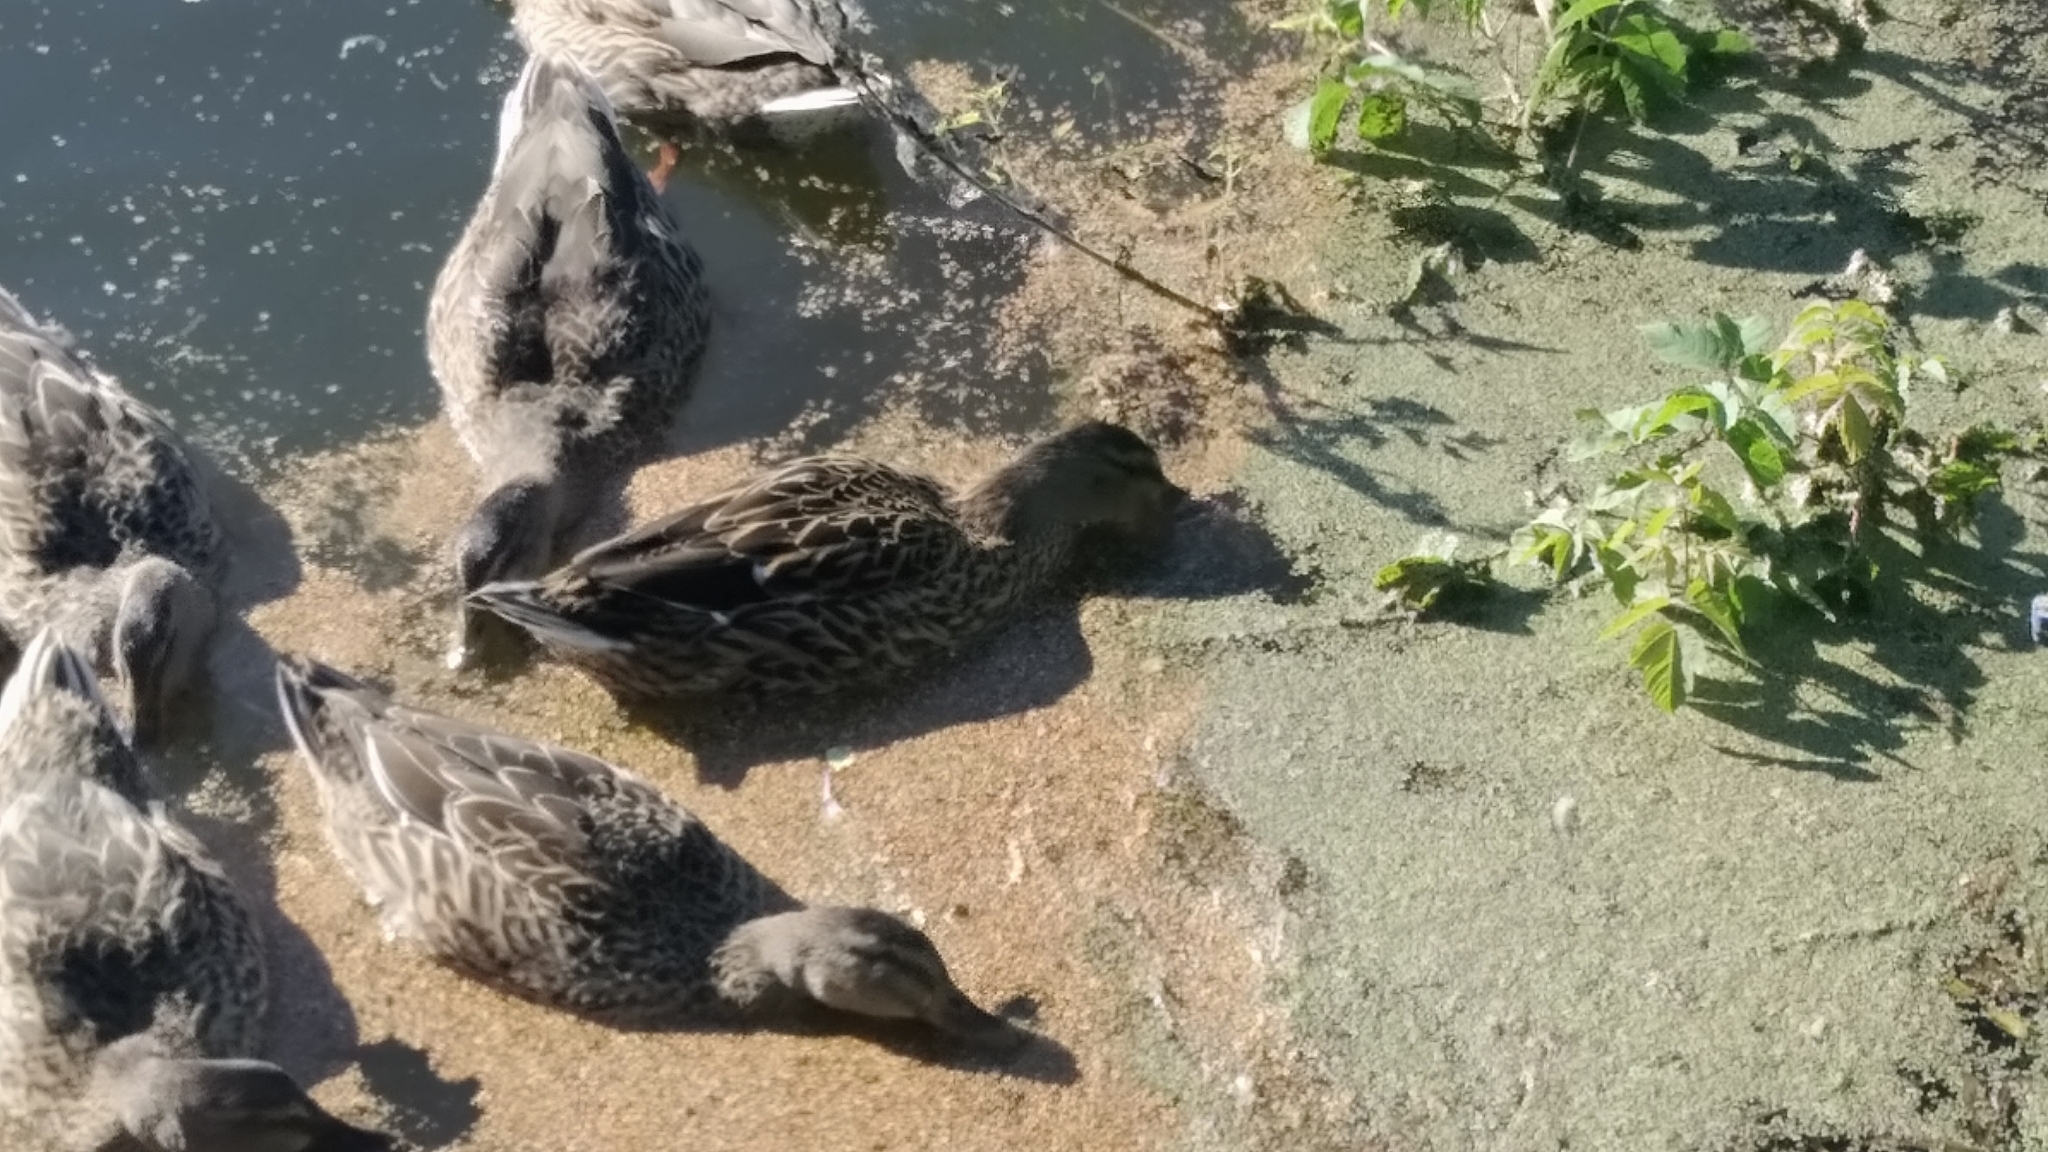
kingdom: Animalia
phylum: Chordata
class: Aves
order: Anseriformes
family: Anatidae
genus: Anas
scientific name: Anas platyrhynchos
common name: Mallard
